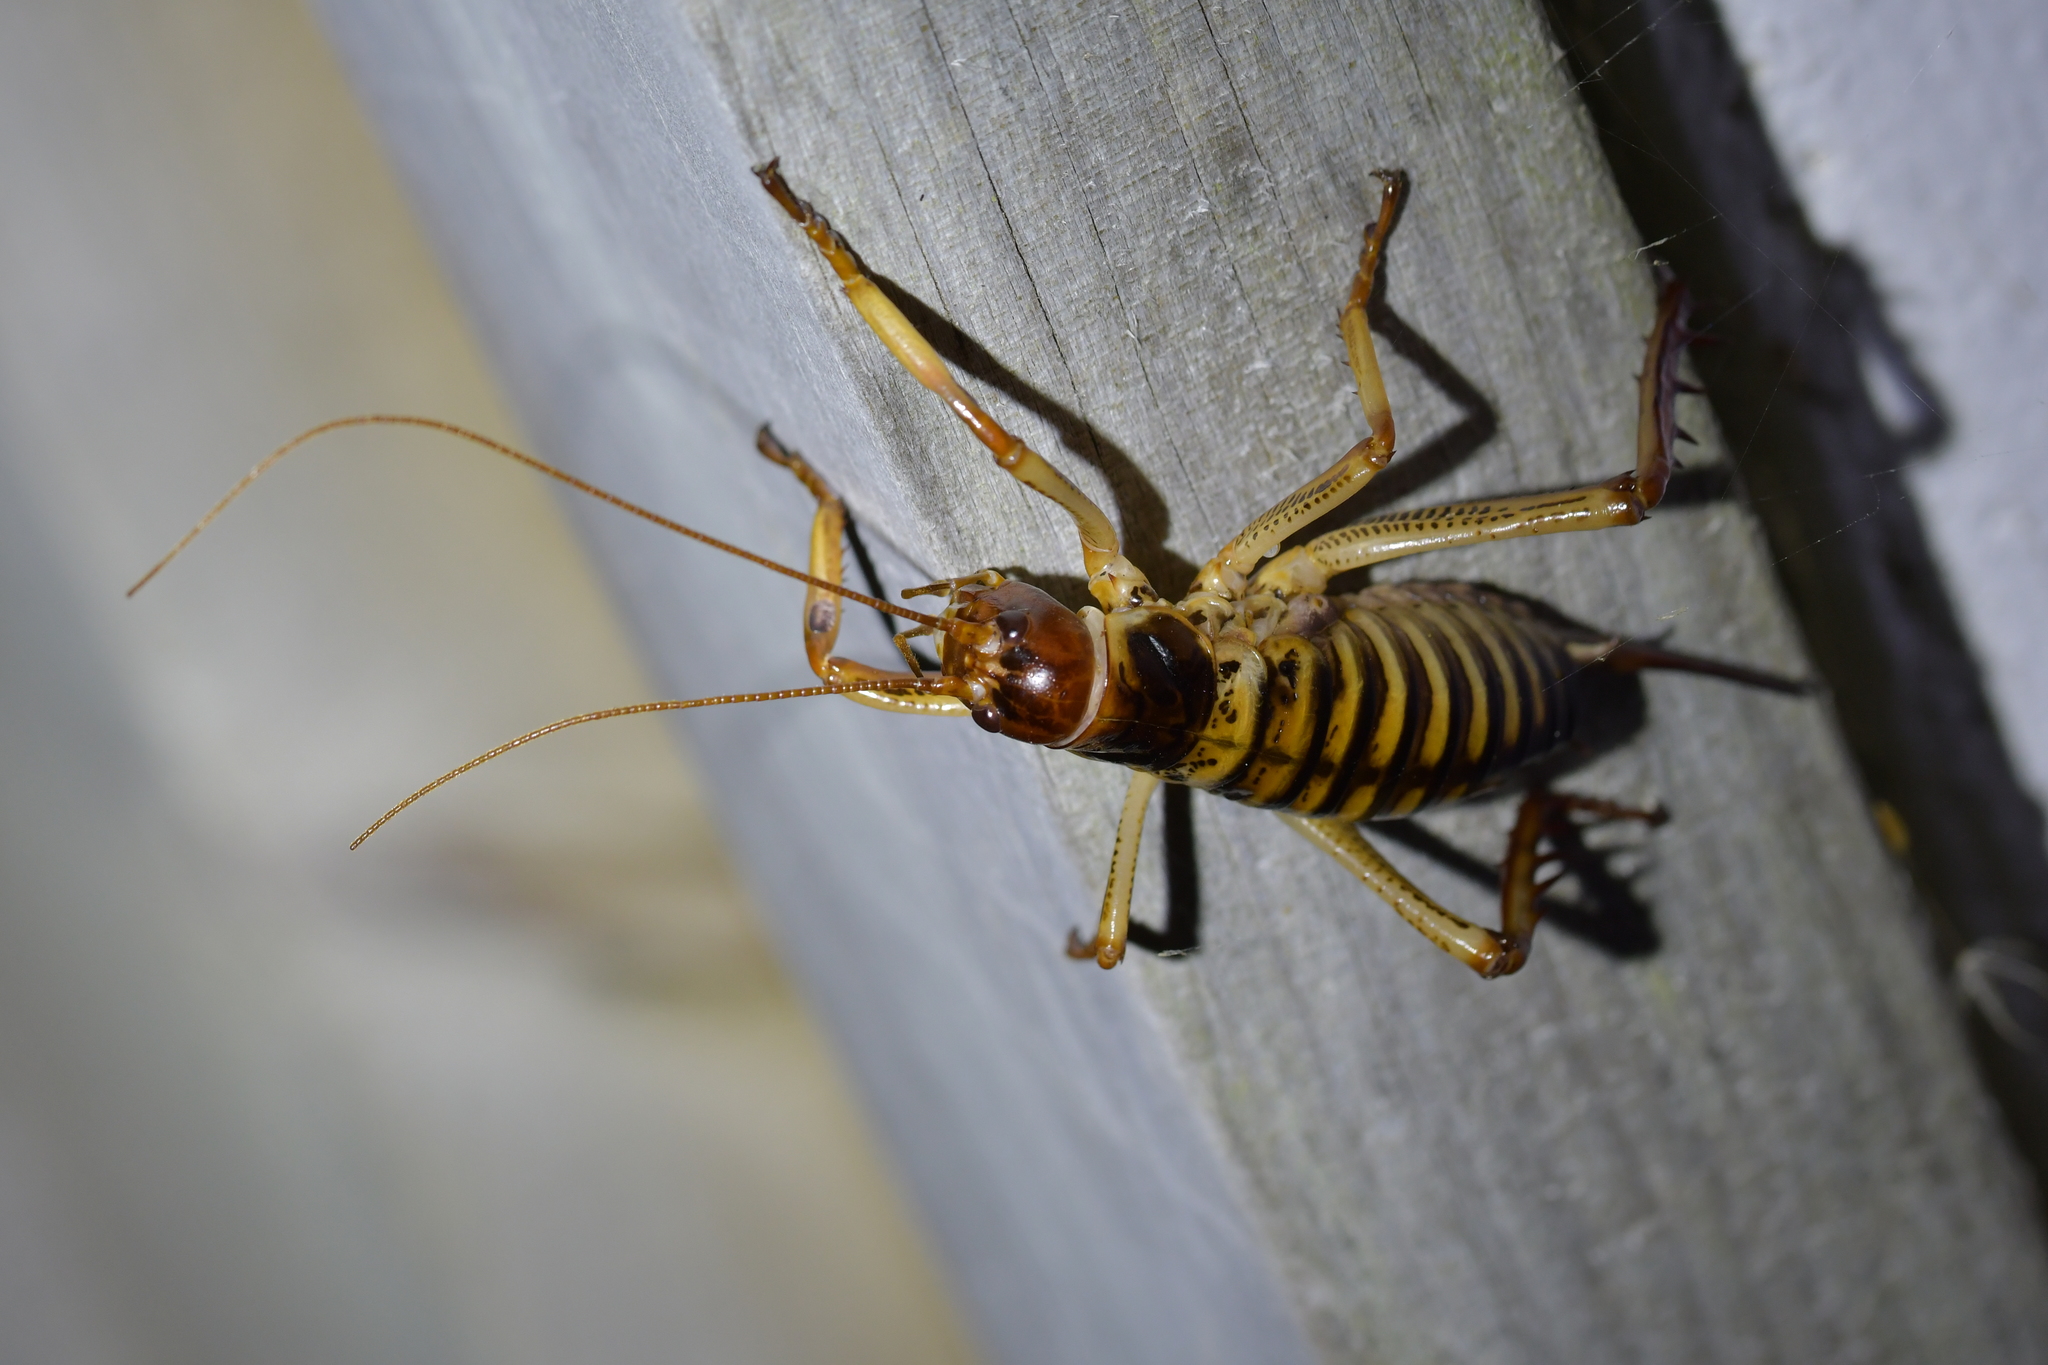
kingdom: Animalia
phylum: Arthropoda
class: Insecta
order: Orthoptera
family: Anostostomatidae
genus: Hemideina
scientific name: Hemideina crassidens
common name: Wellington tree weta
